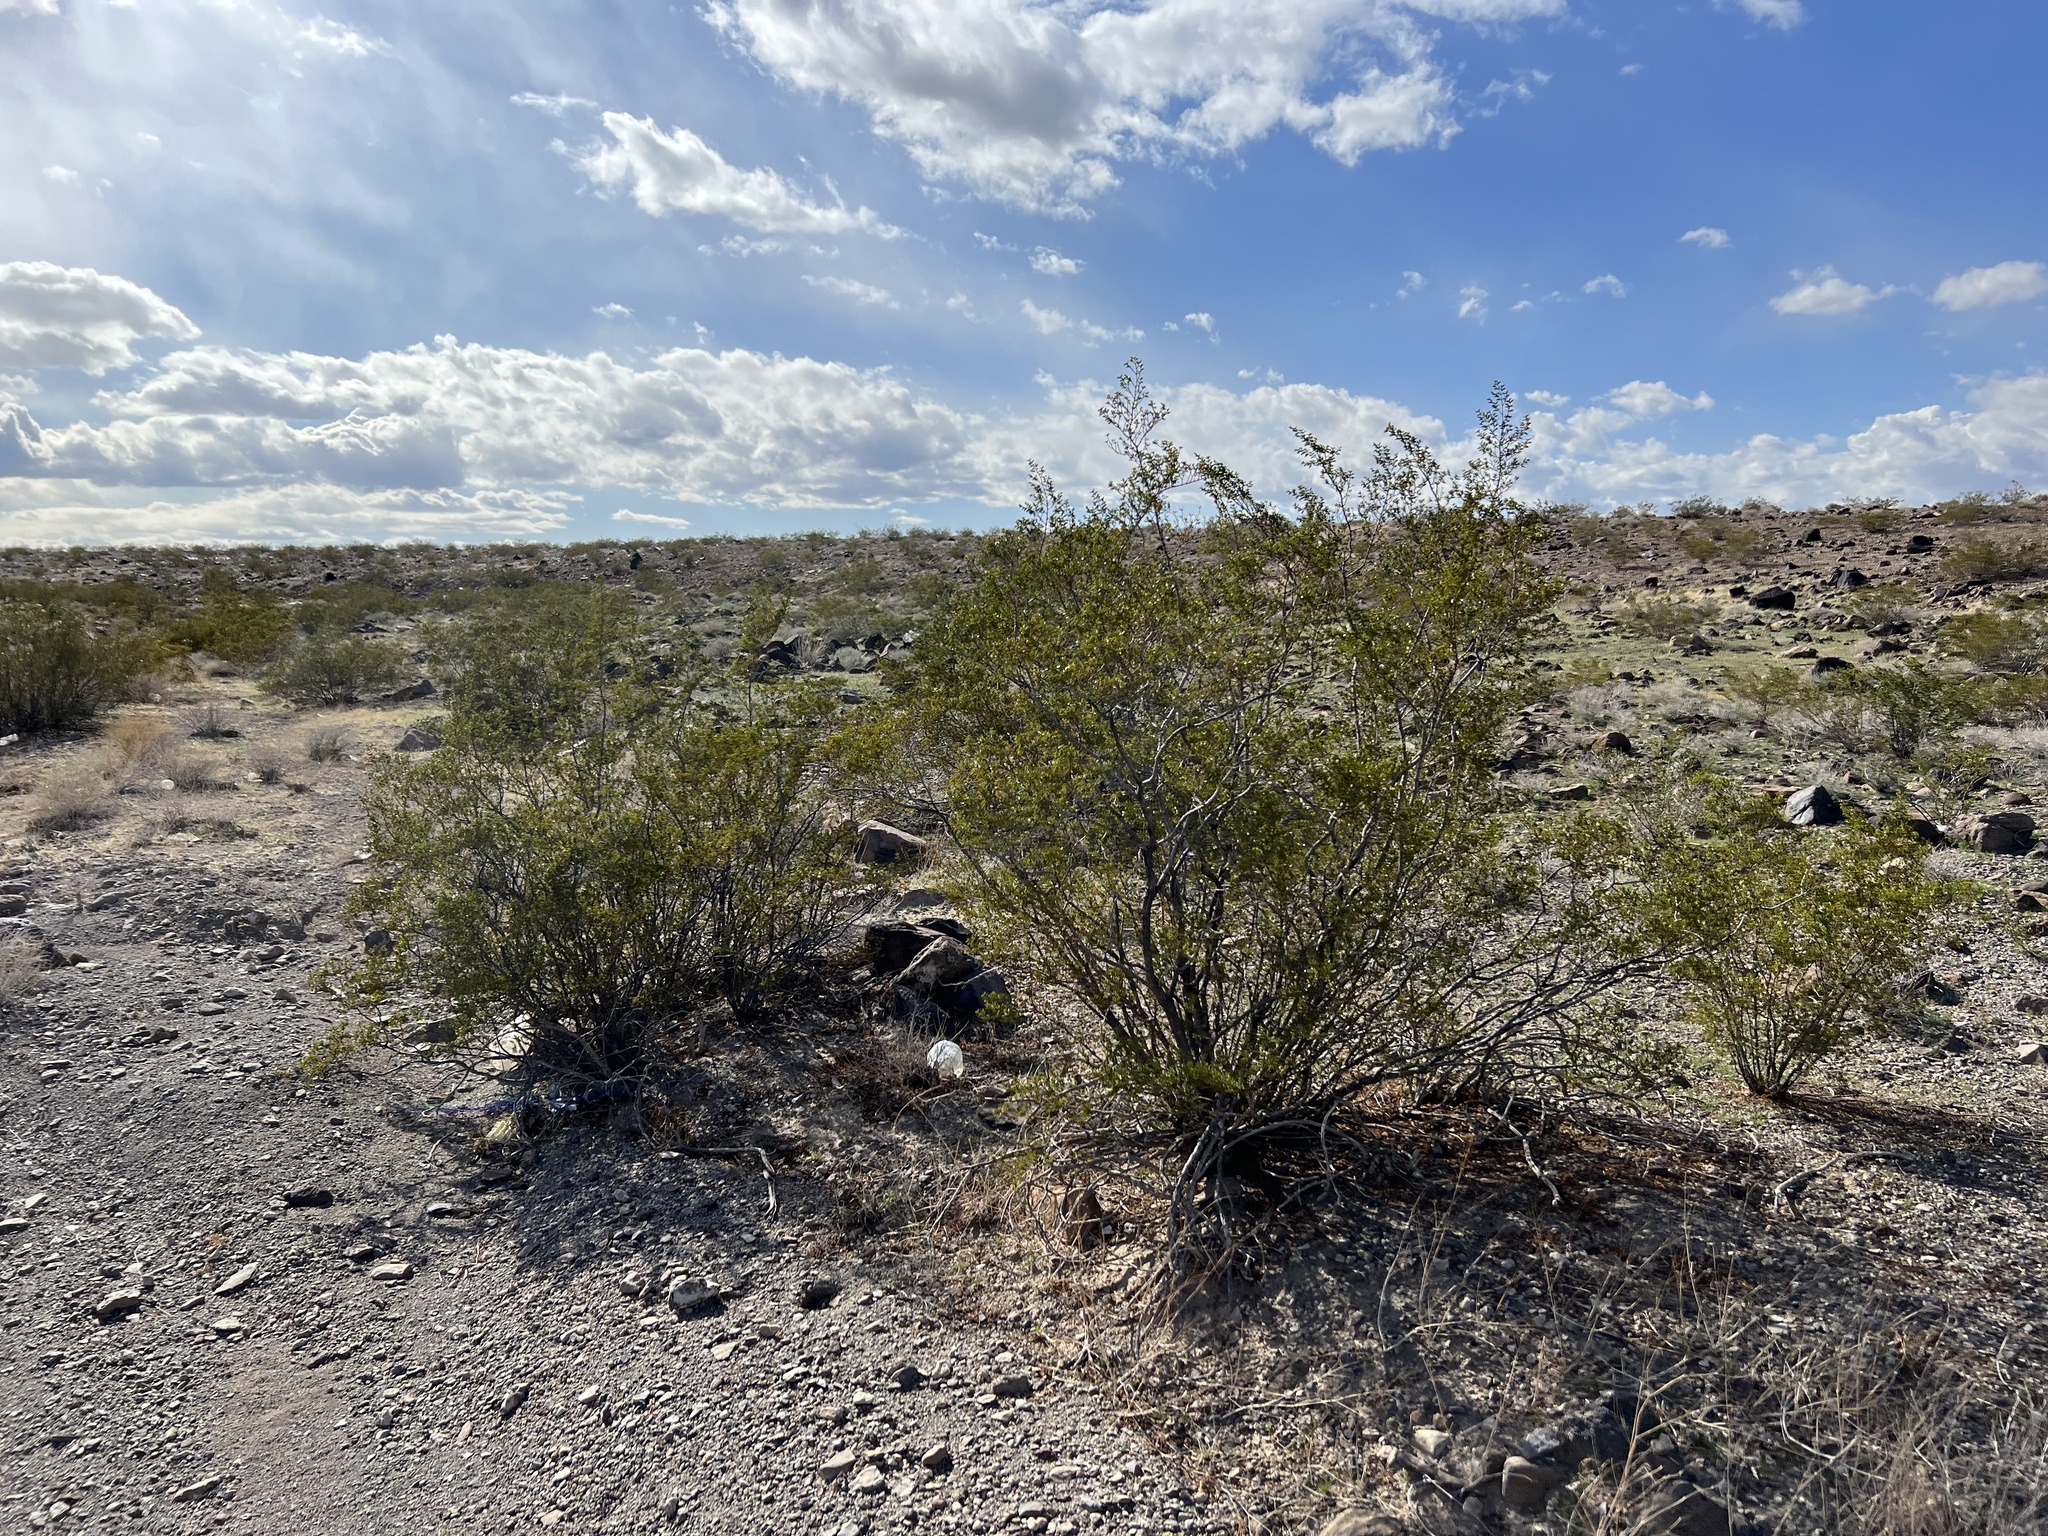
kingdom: Plantae
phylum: Tracheophyta
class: Magnoliopsida
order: Zygophyllales
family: Zygophyllaceae
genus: Larrea
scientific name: Larrea tridentata
